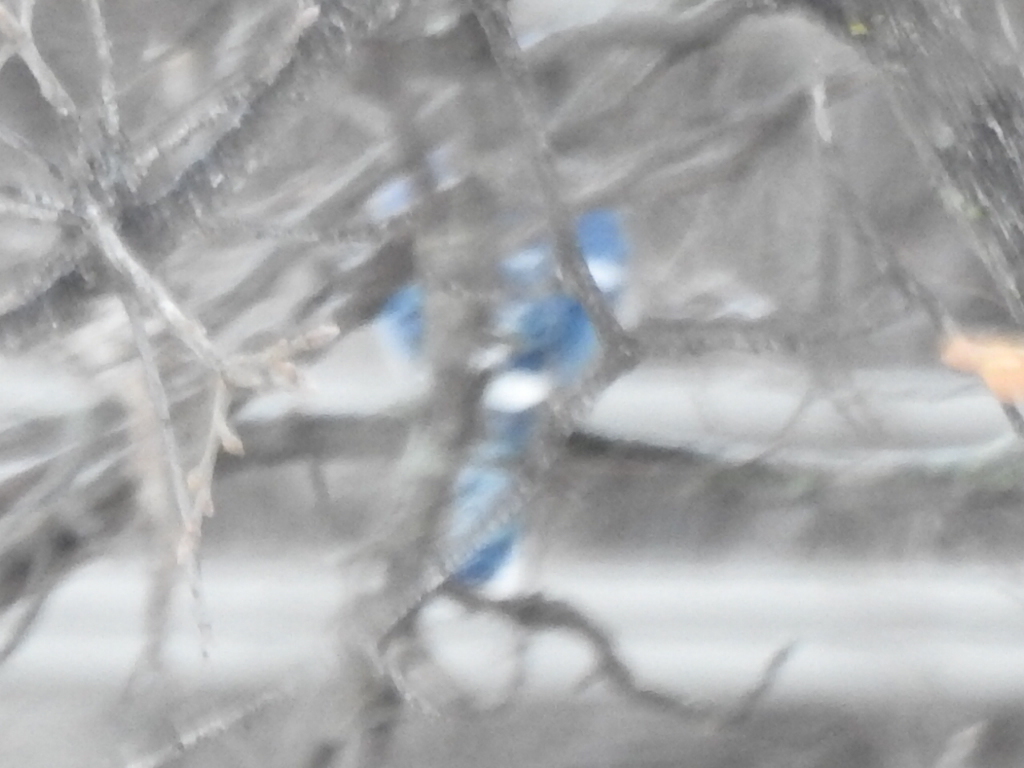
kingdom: Animalia
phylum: Chordata
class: Aves
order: Passeriformes
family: Corvidae
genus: Cyanocitta
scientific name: Cyanocitta cristata
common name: Blue jay
